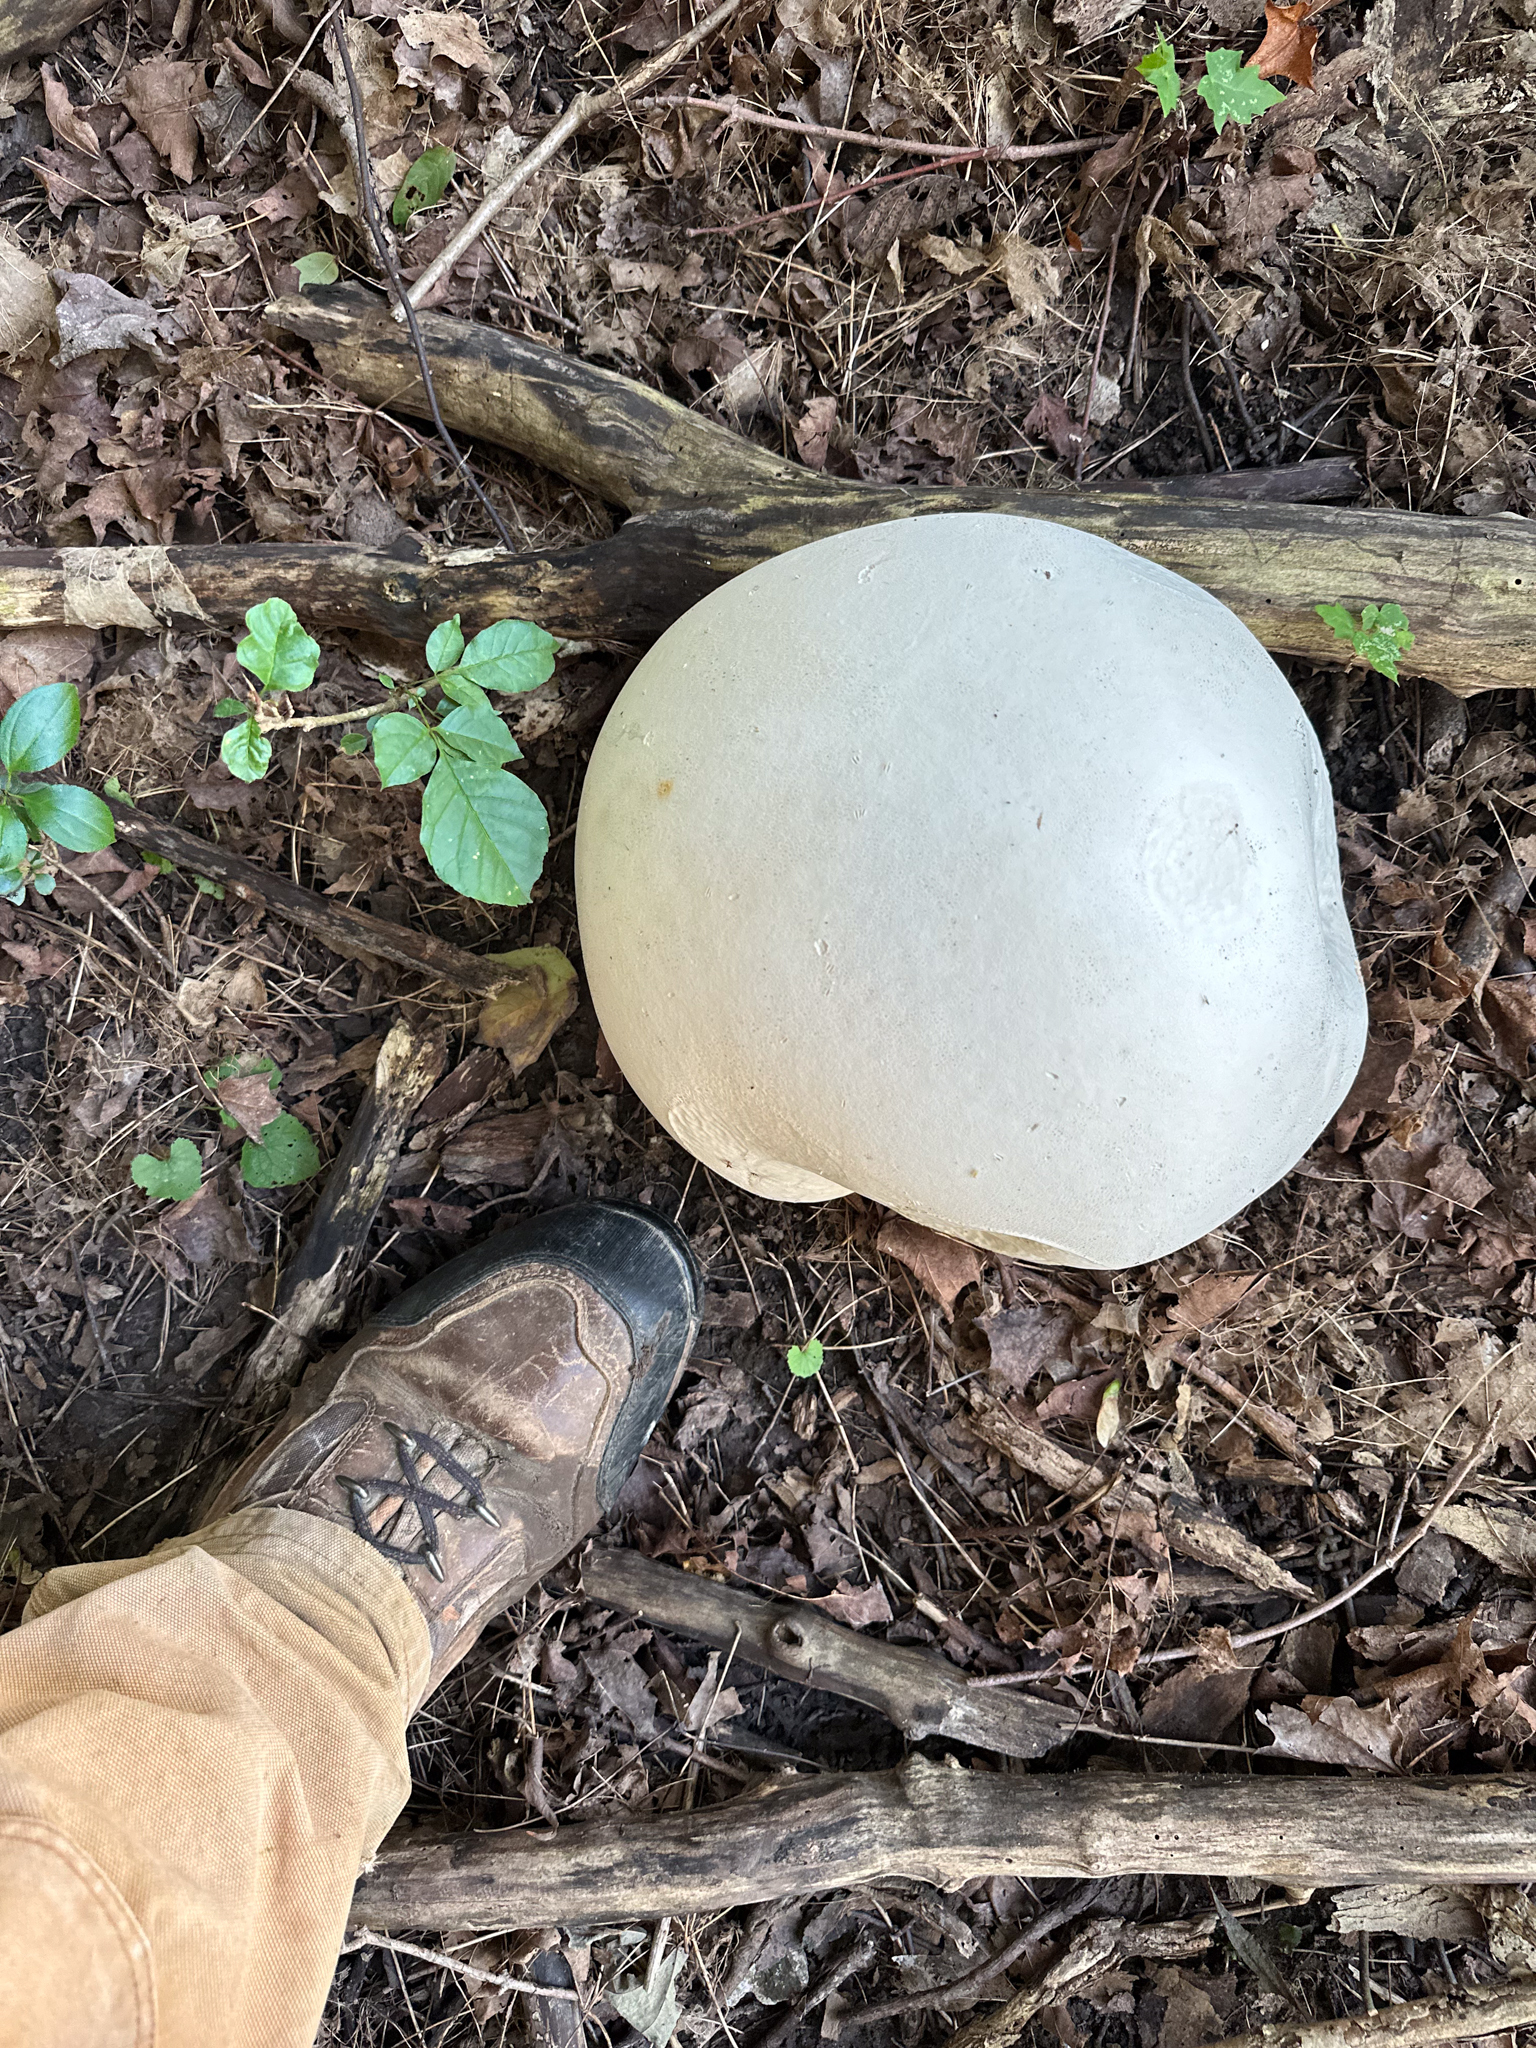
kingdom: Fungi
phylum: Basidiomycota
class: Agaricomycetes
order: Agaricales
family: Lycoperdaceae
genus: Calvatia
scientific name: Calvatia gigantea
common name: Giant puffball
